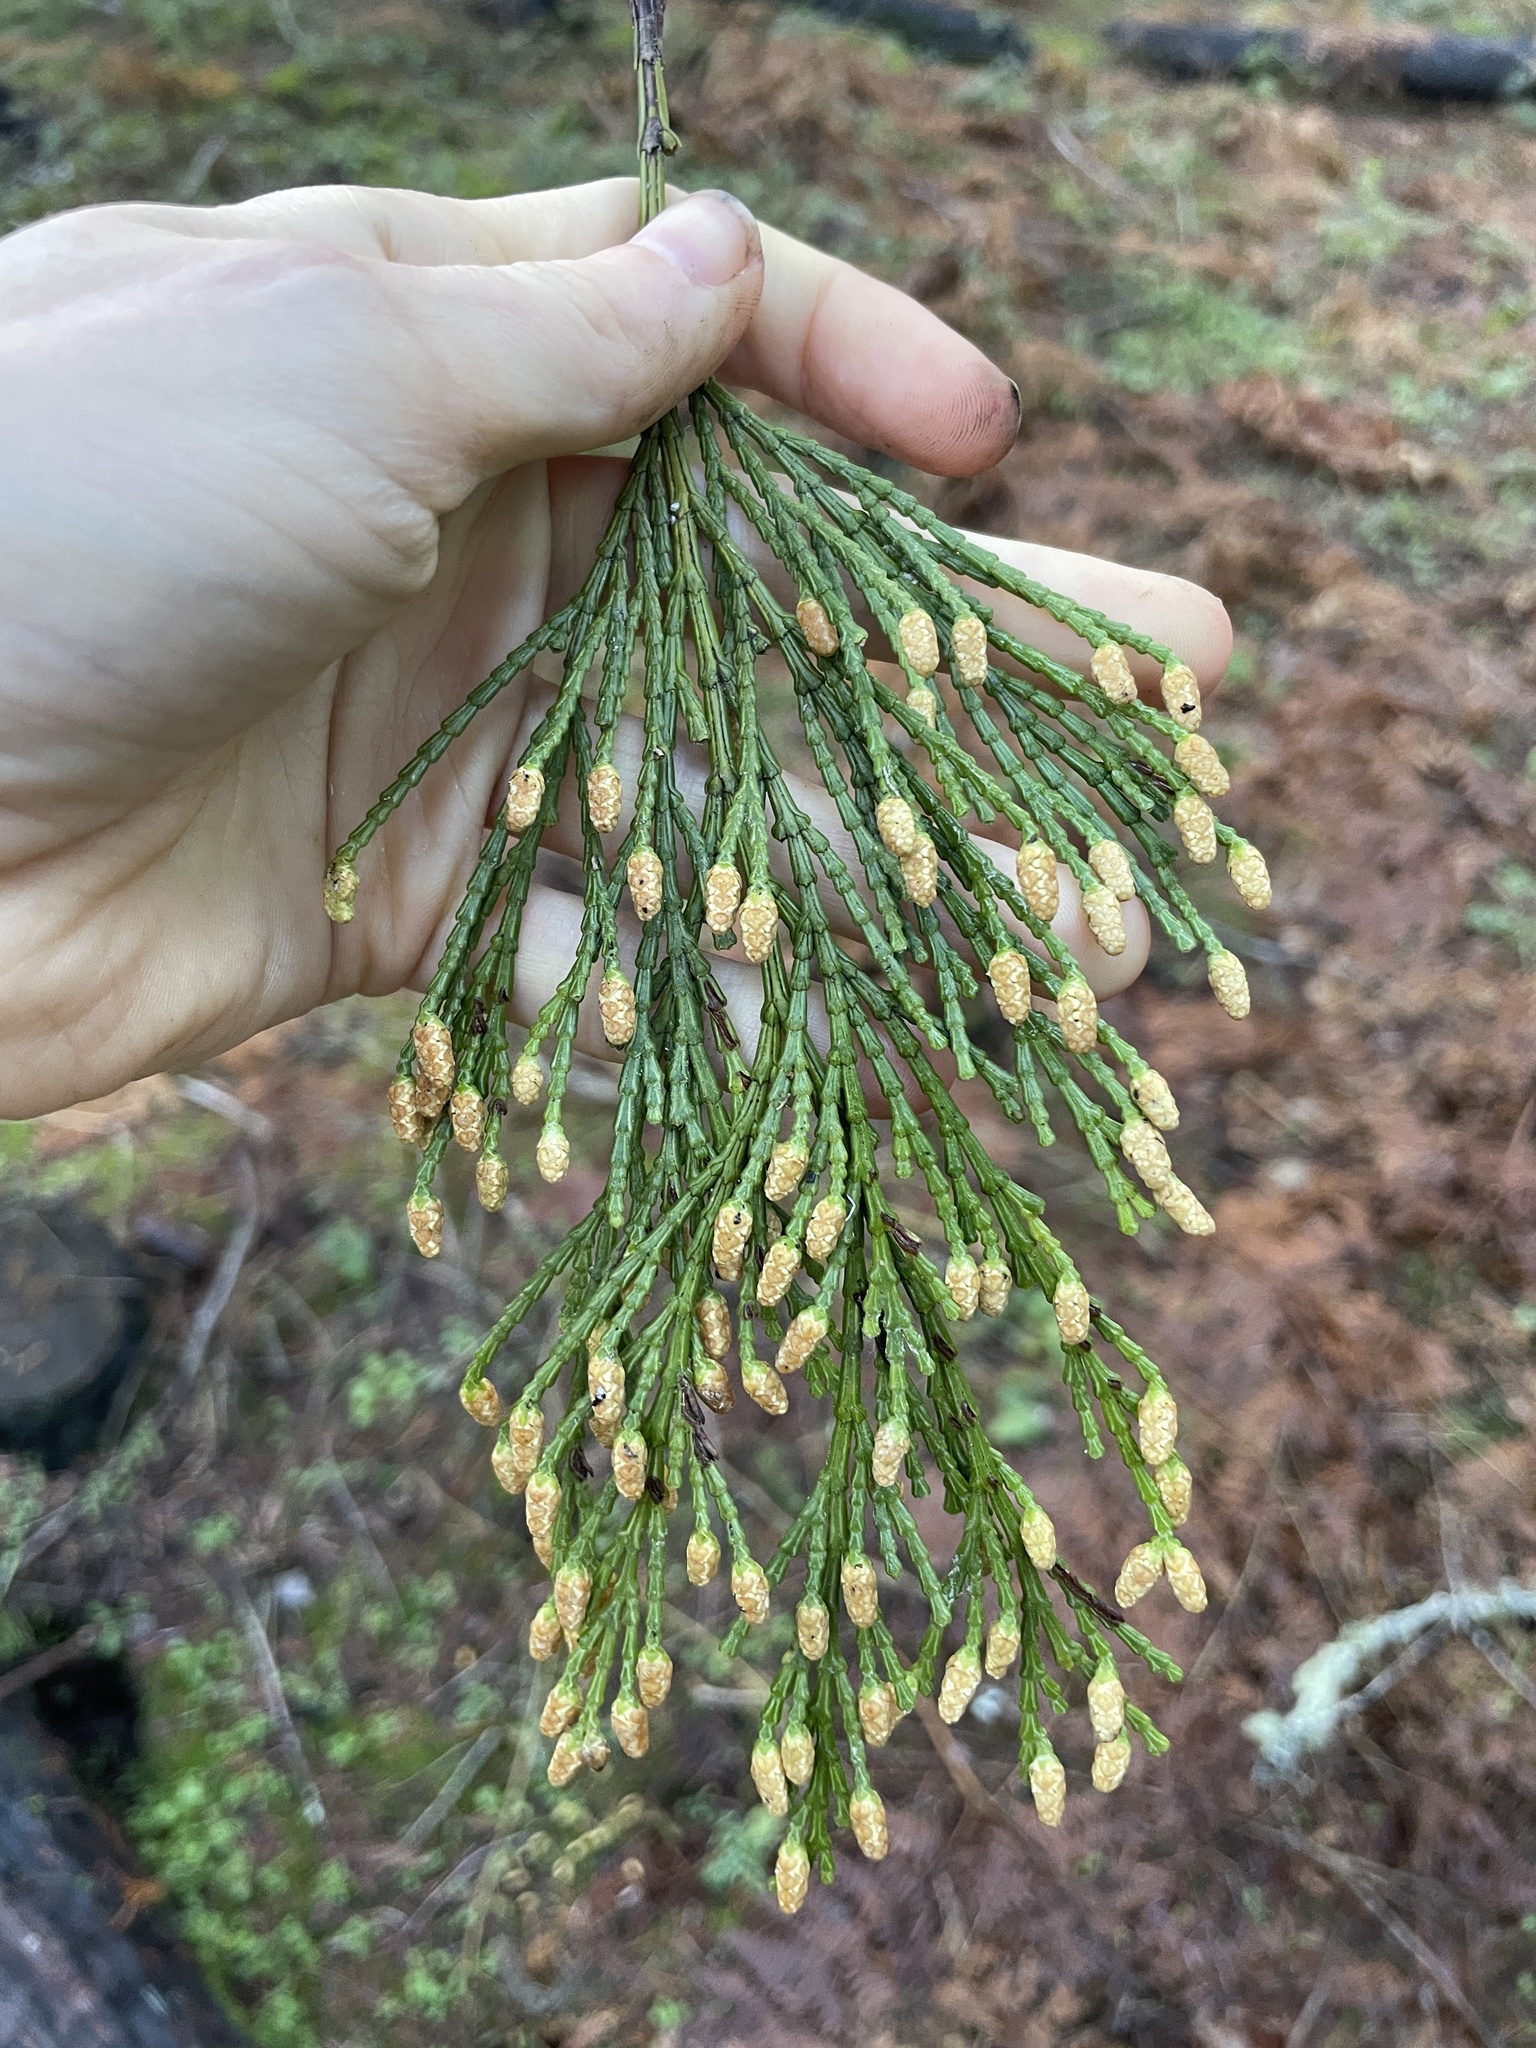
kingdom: Plantae
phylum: Tracheophyta
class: Pinopsida
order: Pinales
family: Cupressaceae
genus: Calocedrus
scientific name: Calocedrus decurrens
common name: Californian incense-cedar
